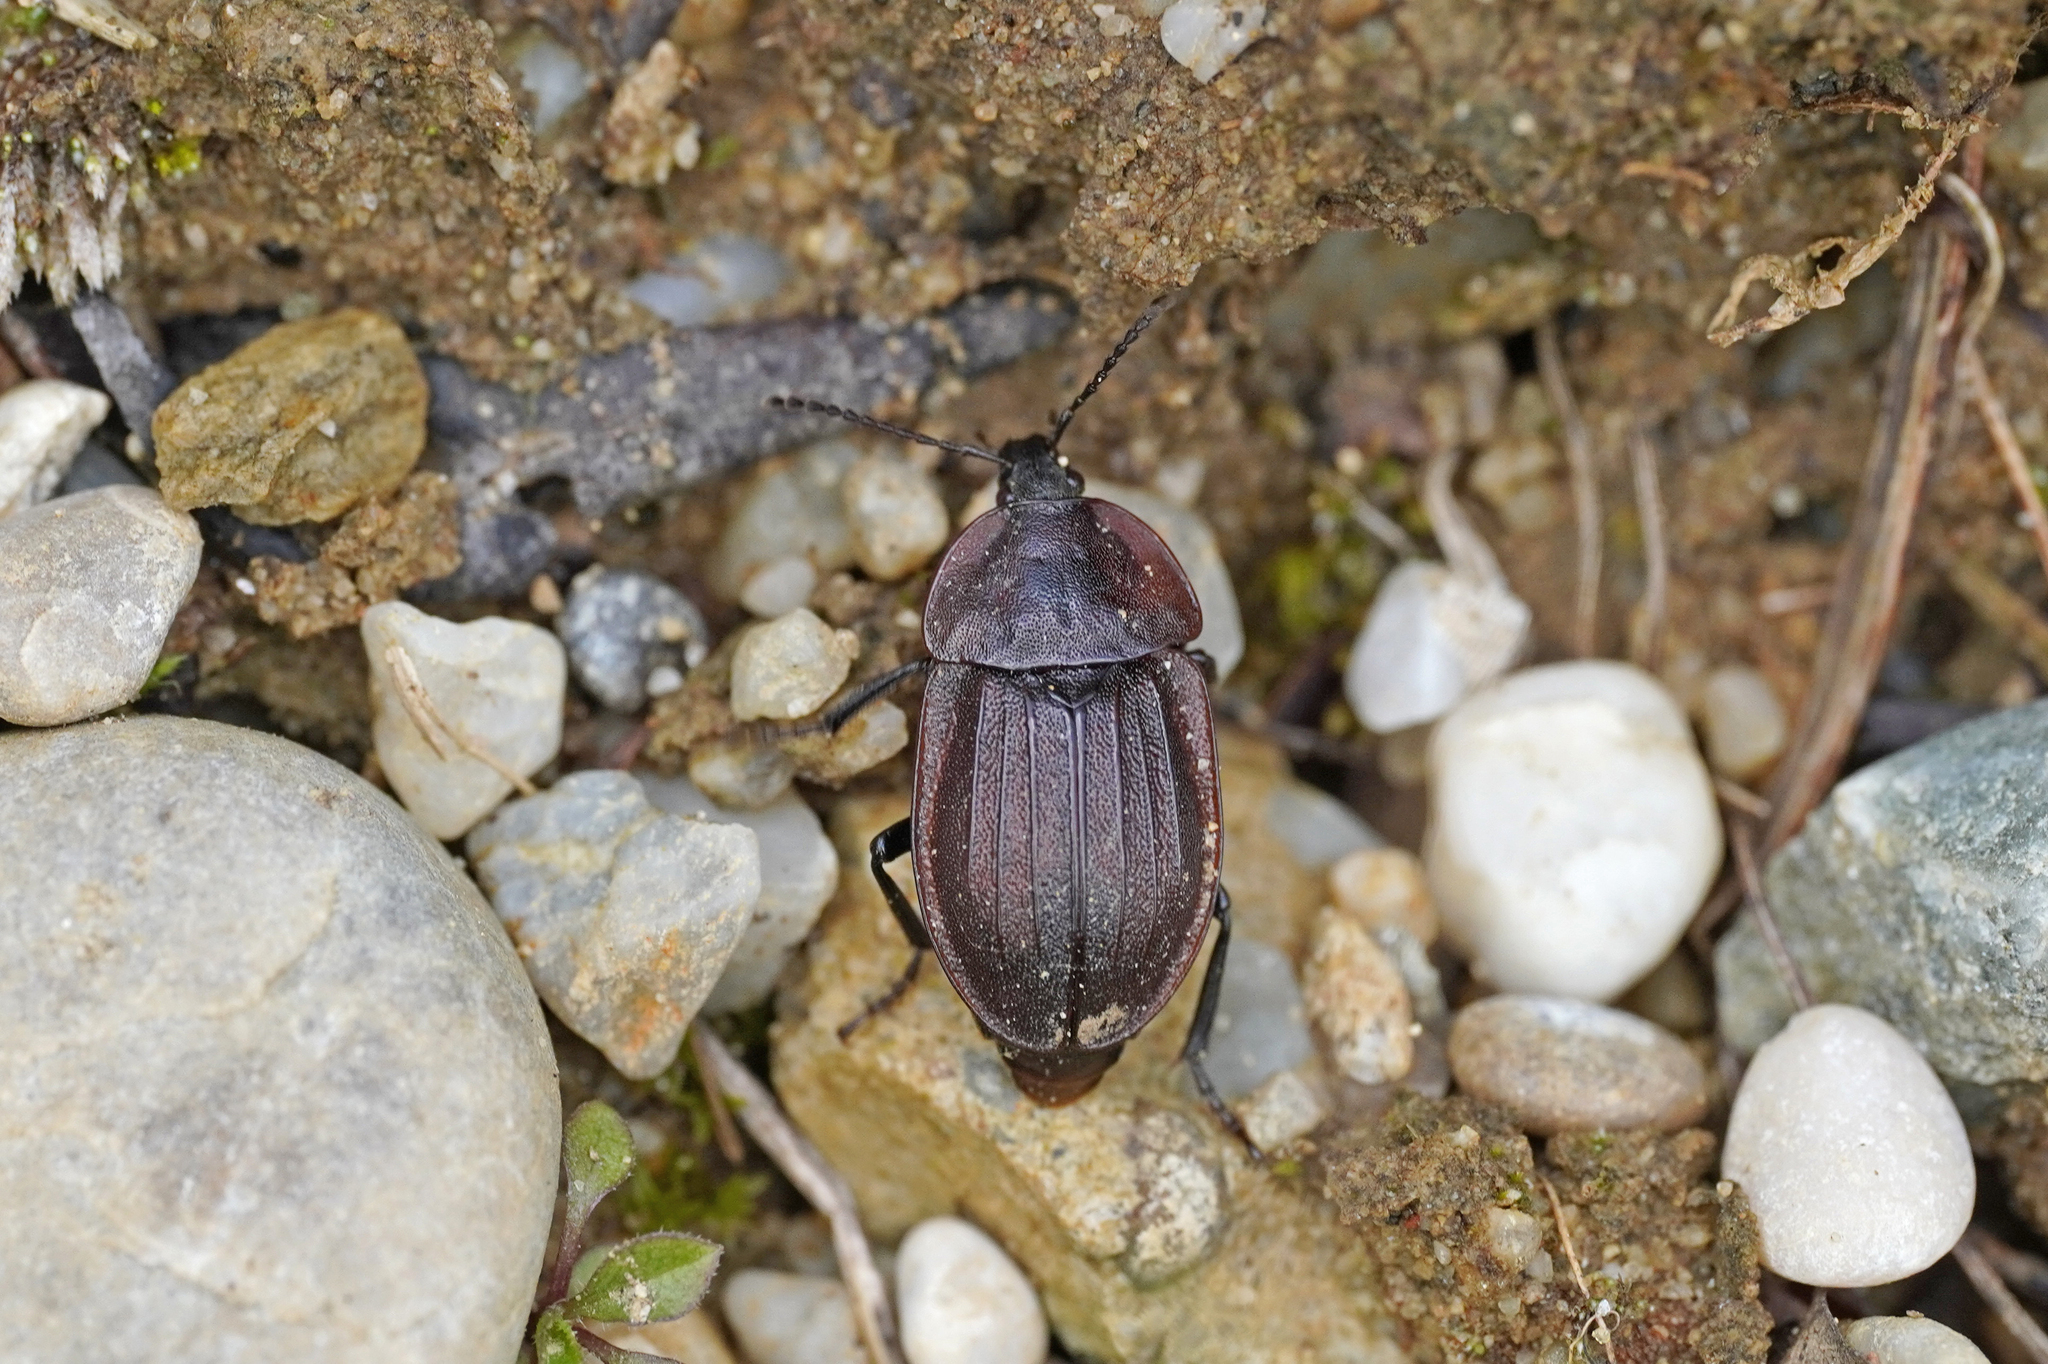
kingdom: Animalia
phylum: Arthropoda
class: Insecta
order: Coleoptera
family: Staphylinidae
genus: Silpha
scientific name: Silpha atrata
